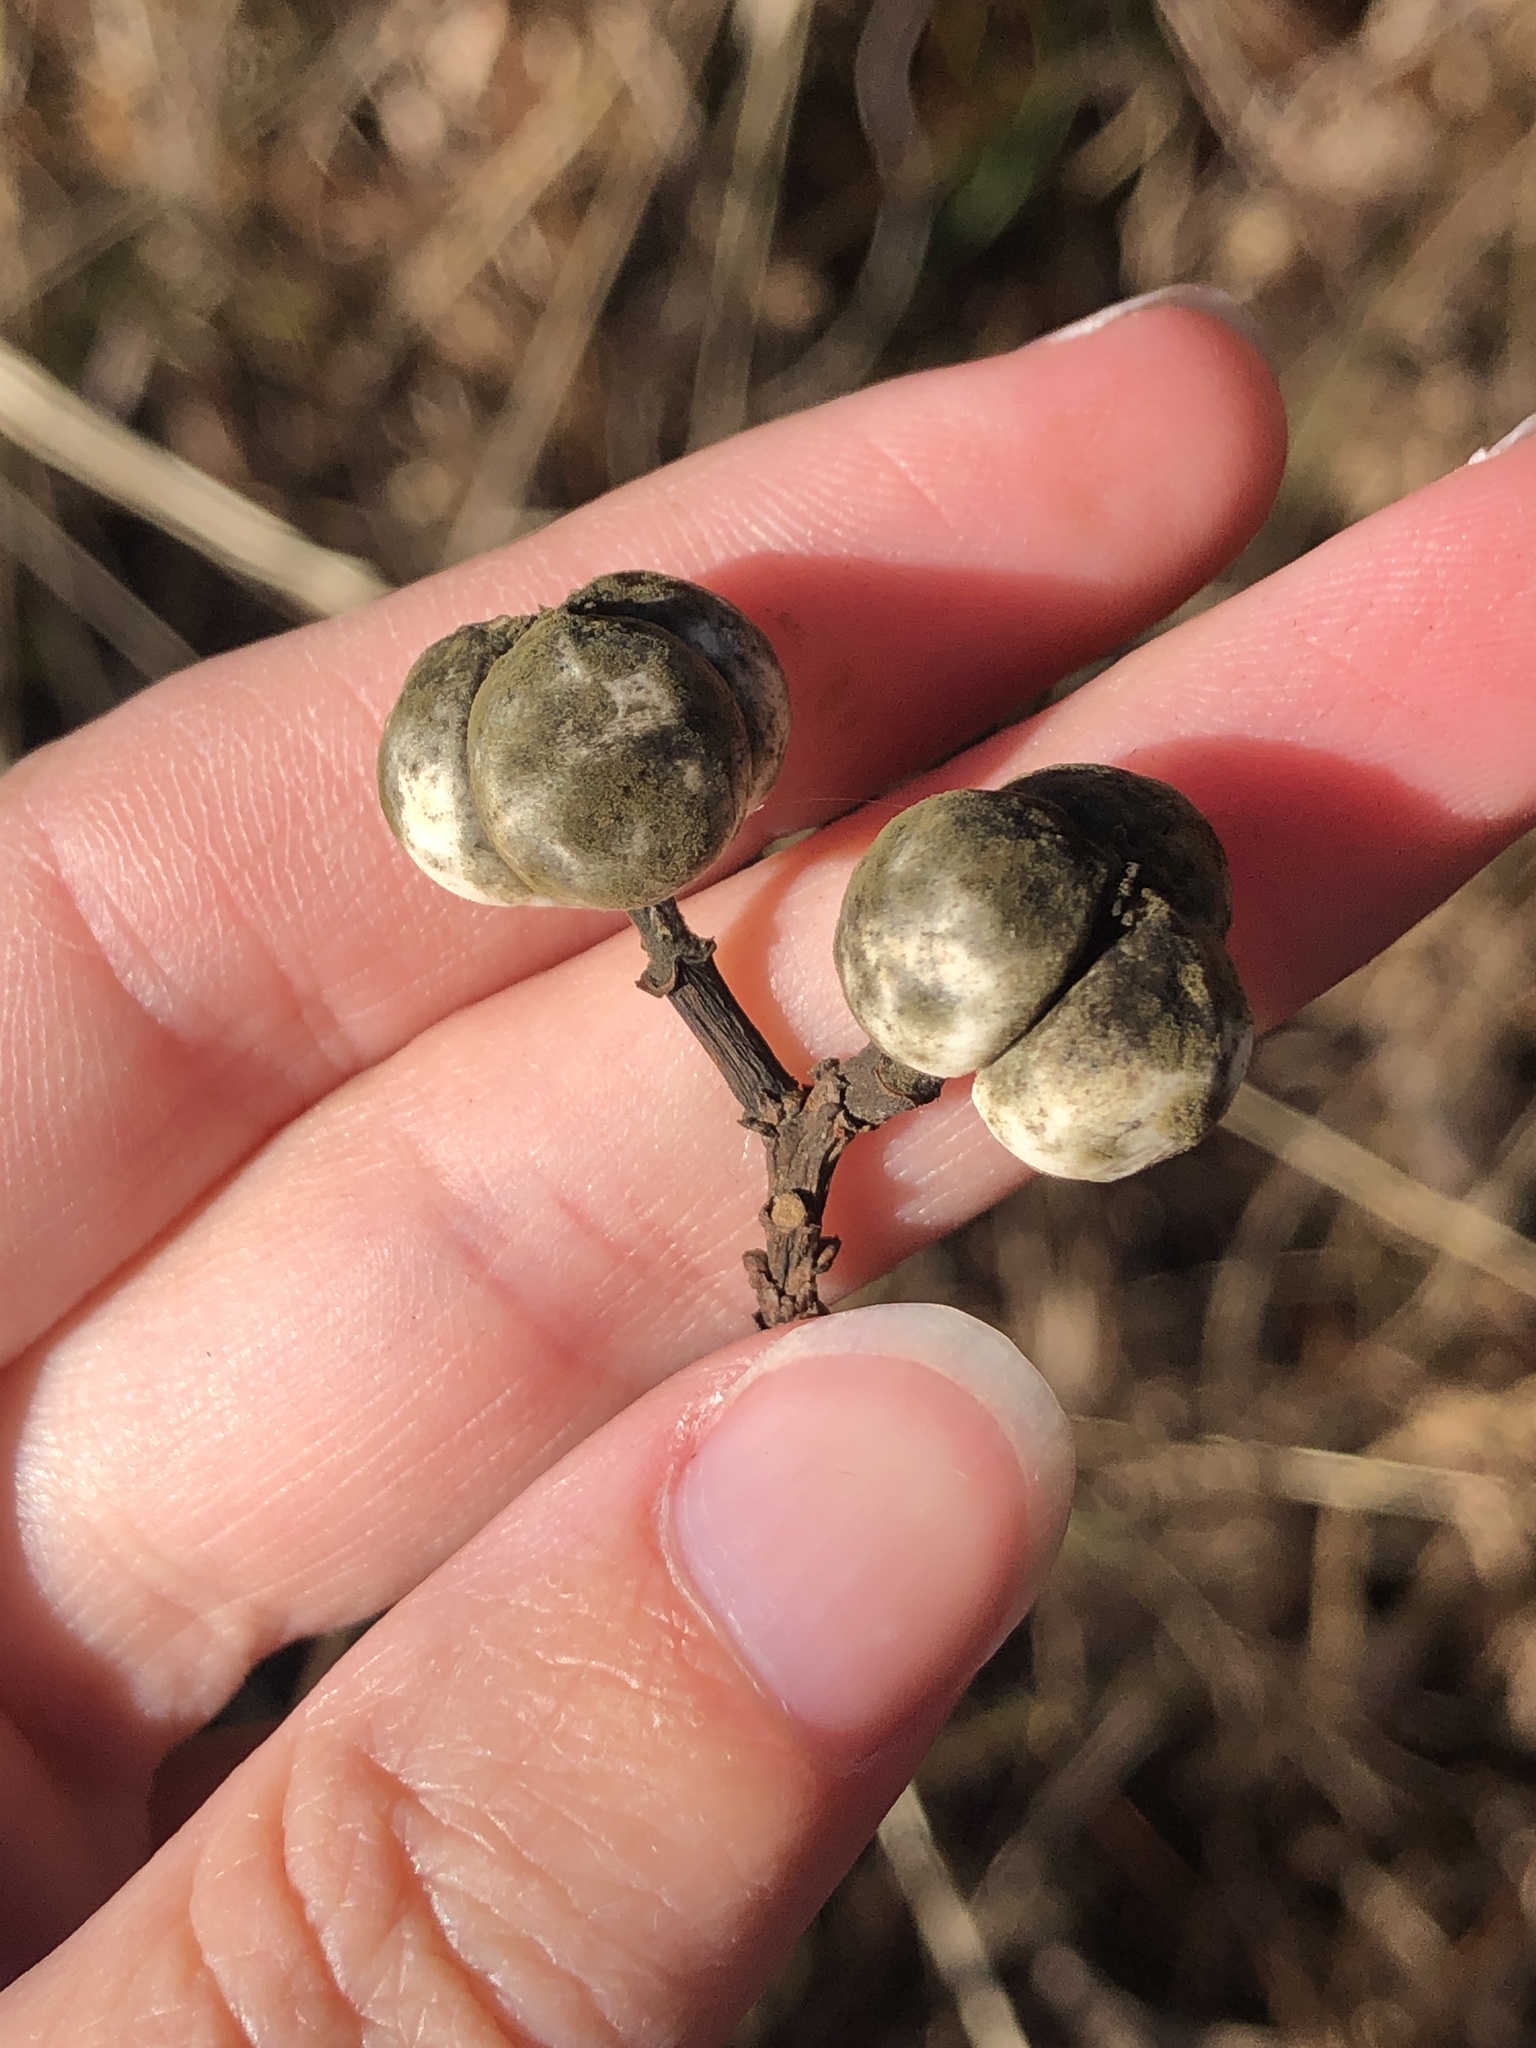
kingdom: Plantae
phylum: Tracheophyta
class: Magnoliopsida
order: Malpighiales
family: Euphorbiaceae
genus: Triadica
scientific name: Triadica sebifera
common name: Chinese tallow
